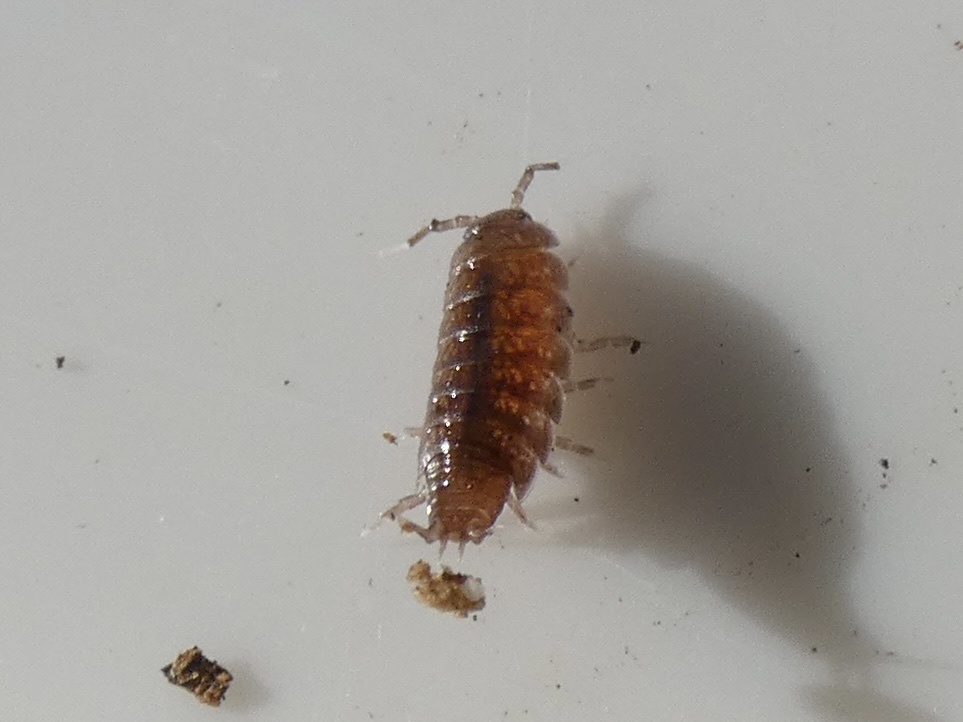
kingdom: Animalia
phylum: Arthropoda
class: Malacostraca
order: Isopoda
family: Trichoniscidae
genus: Trichoniscus
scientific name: Trichoniscus
